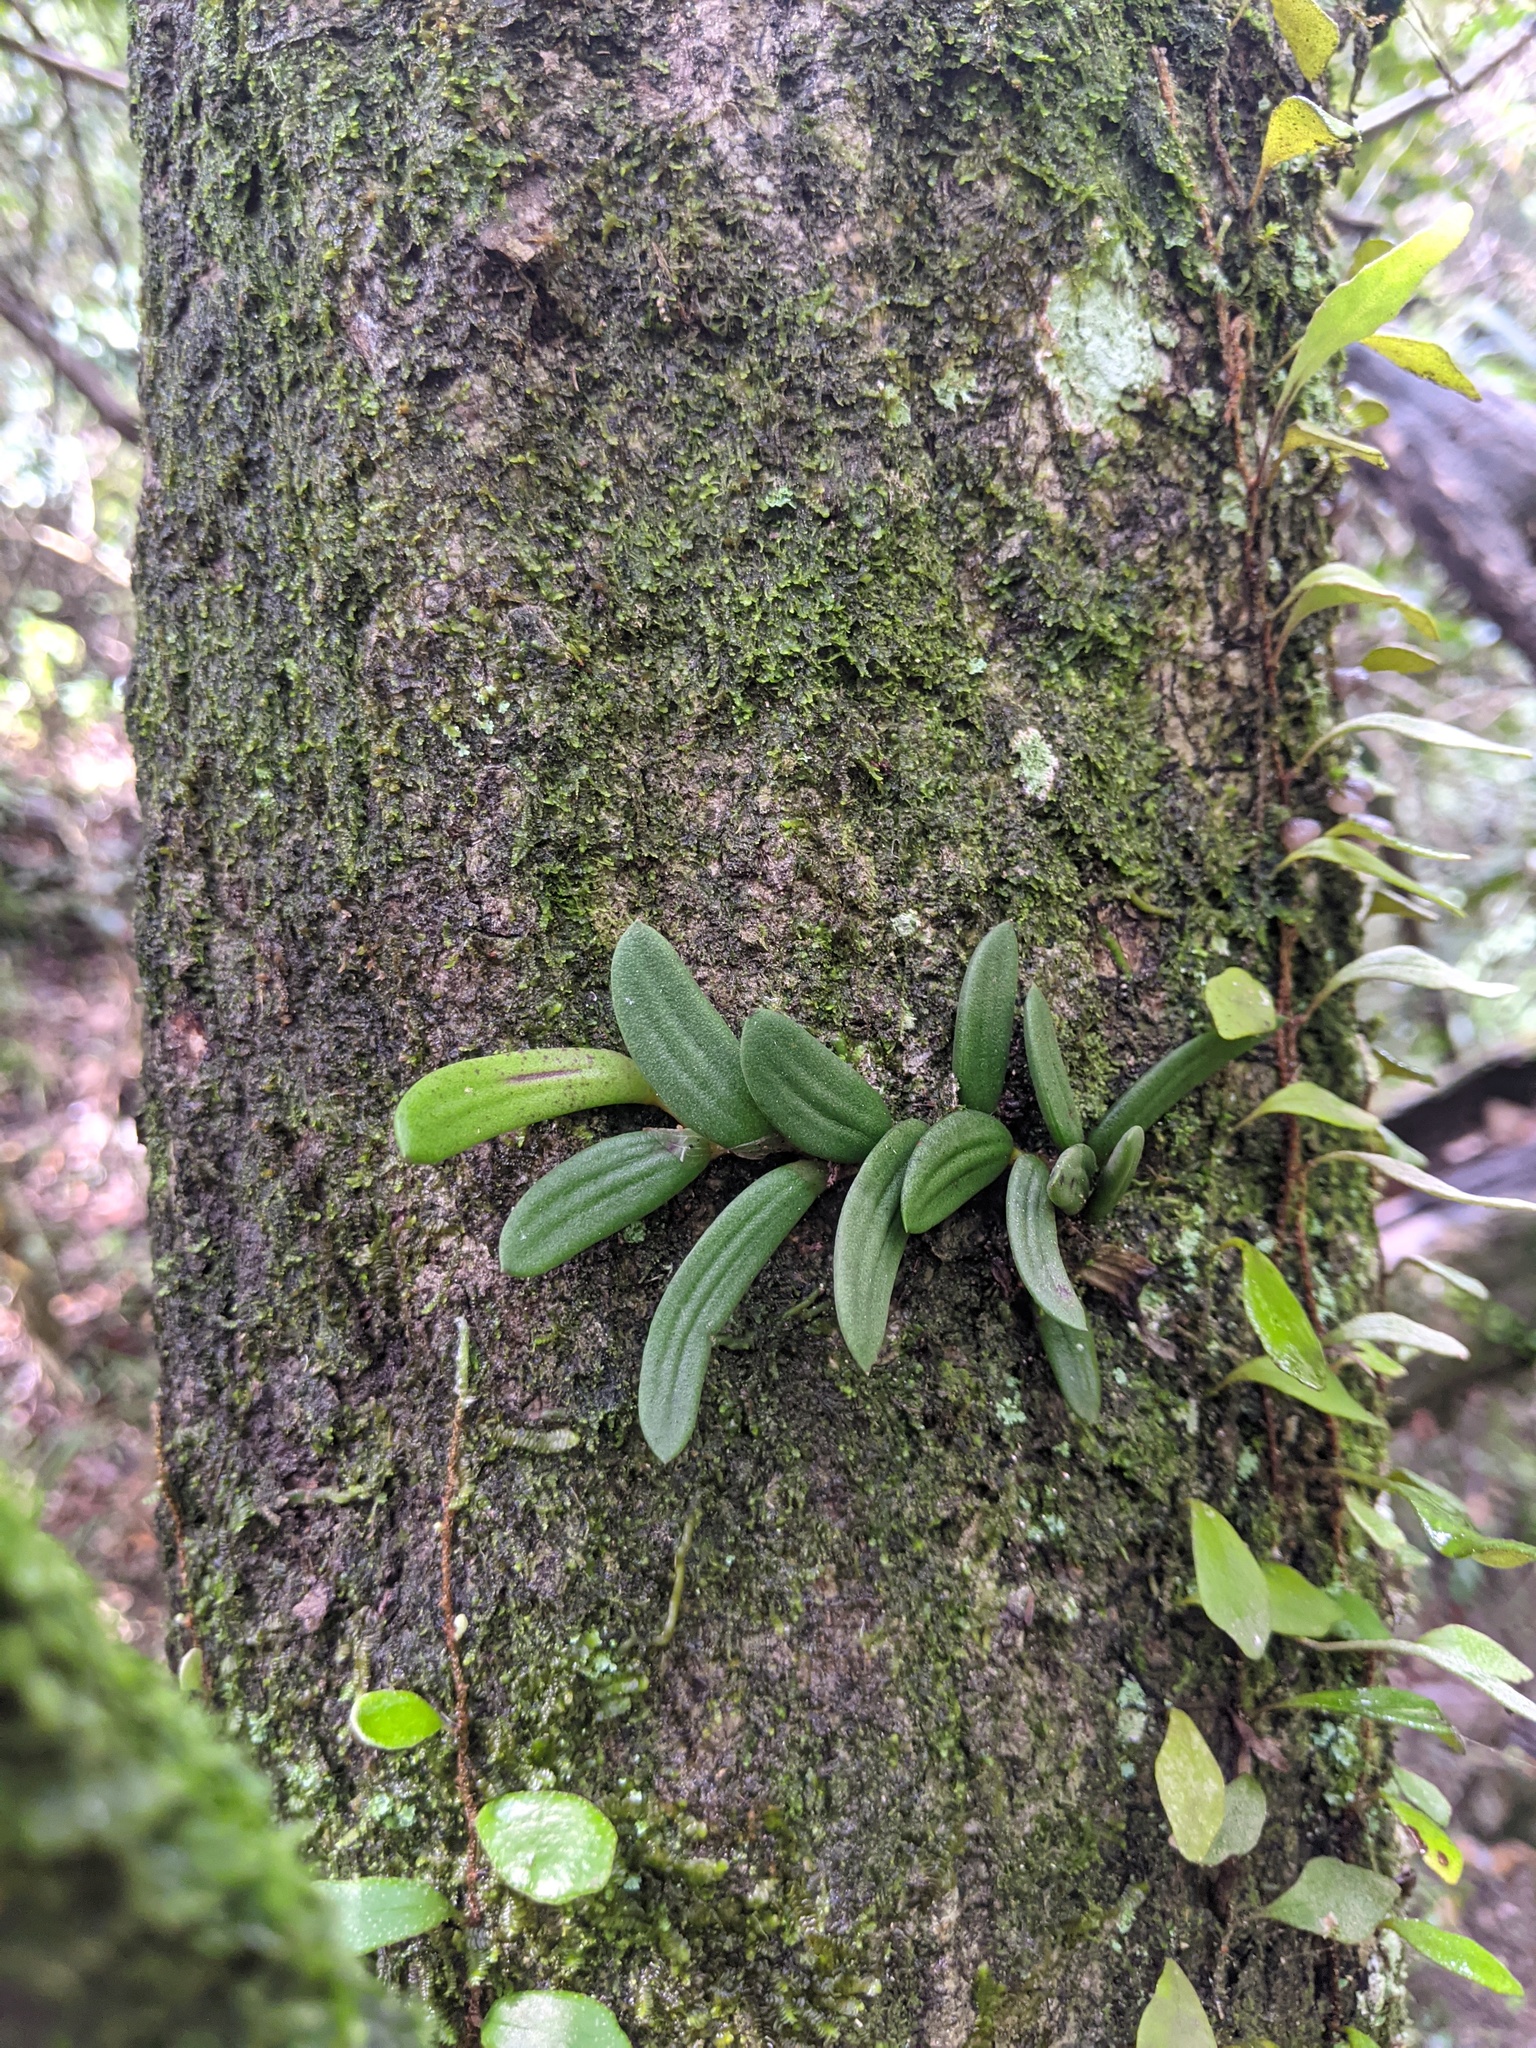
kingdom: Plantae
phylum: Tracheophyta
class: Liliopsida
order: Asparagales
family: Orchidaceae
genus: Dendrobium
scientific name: Dendrobium linguiforme
